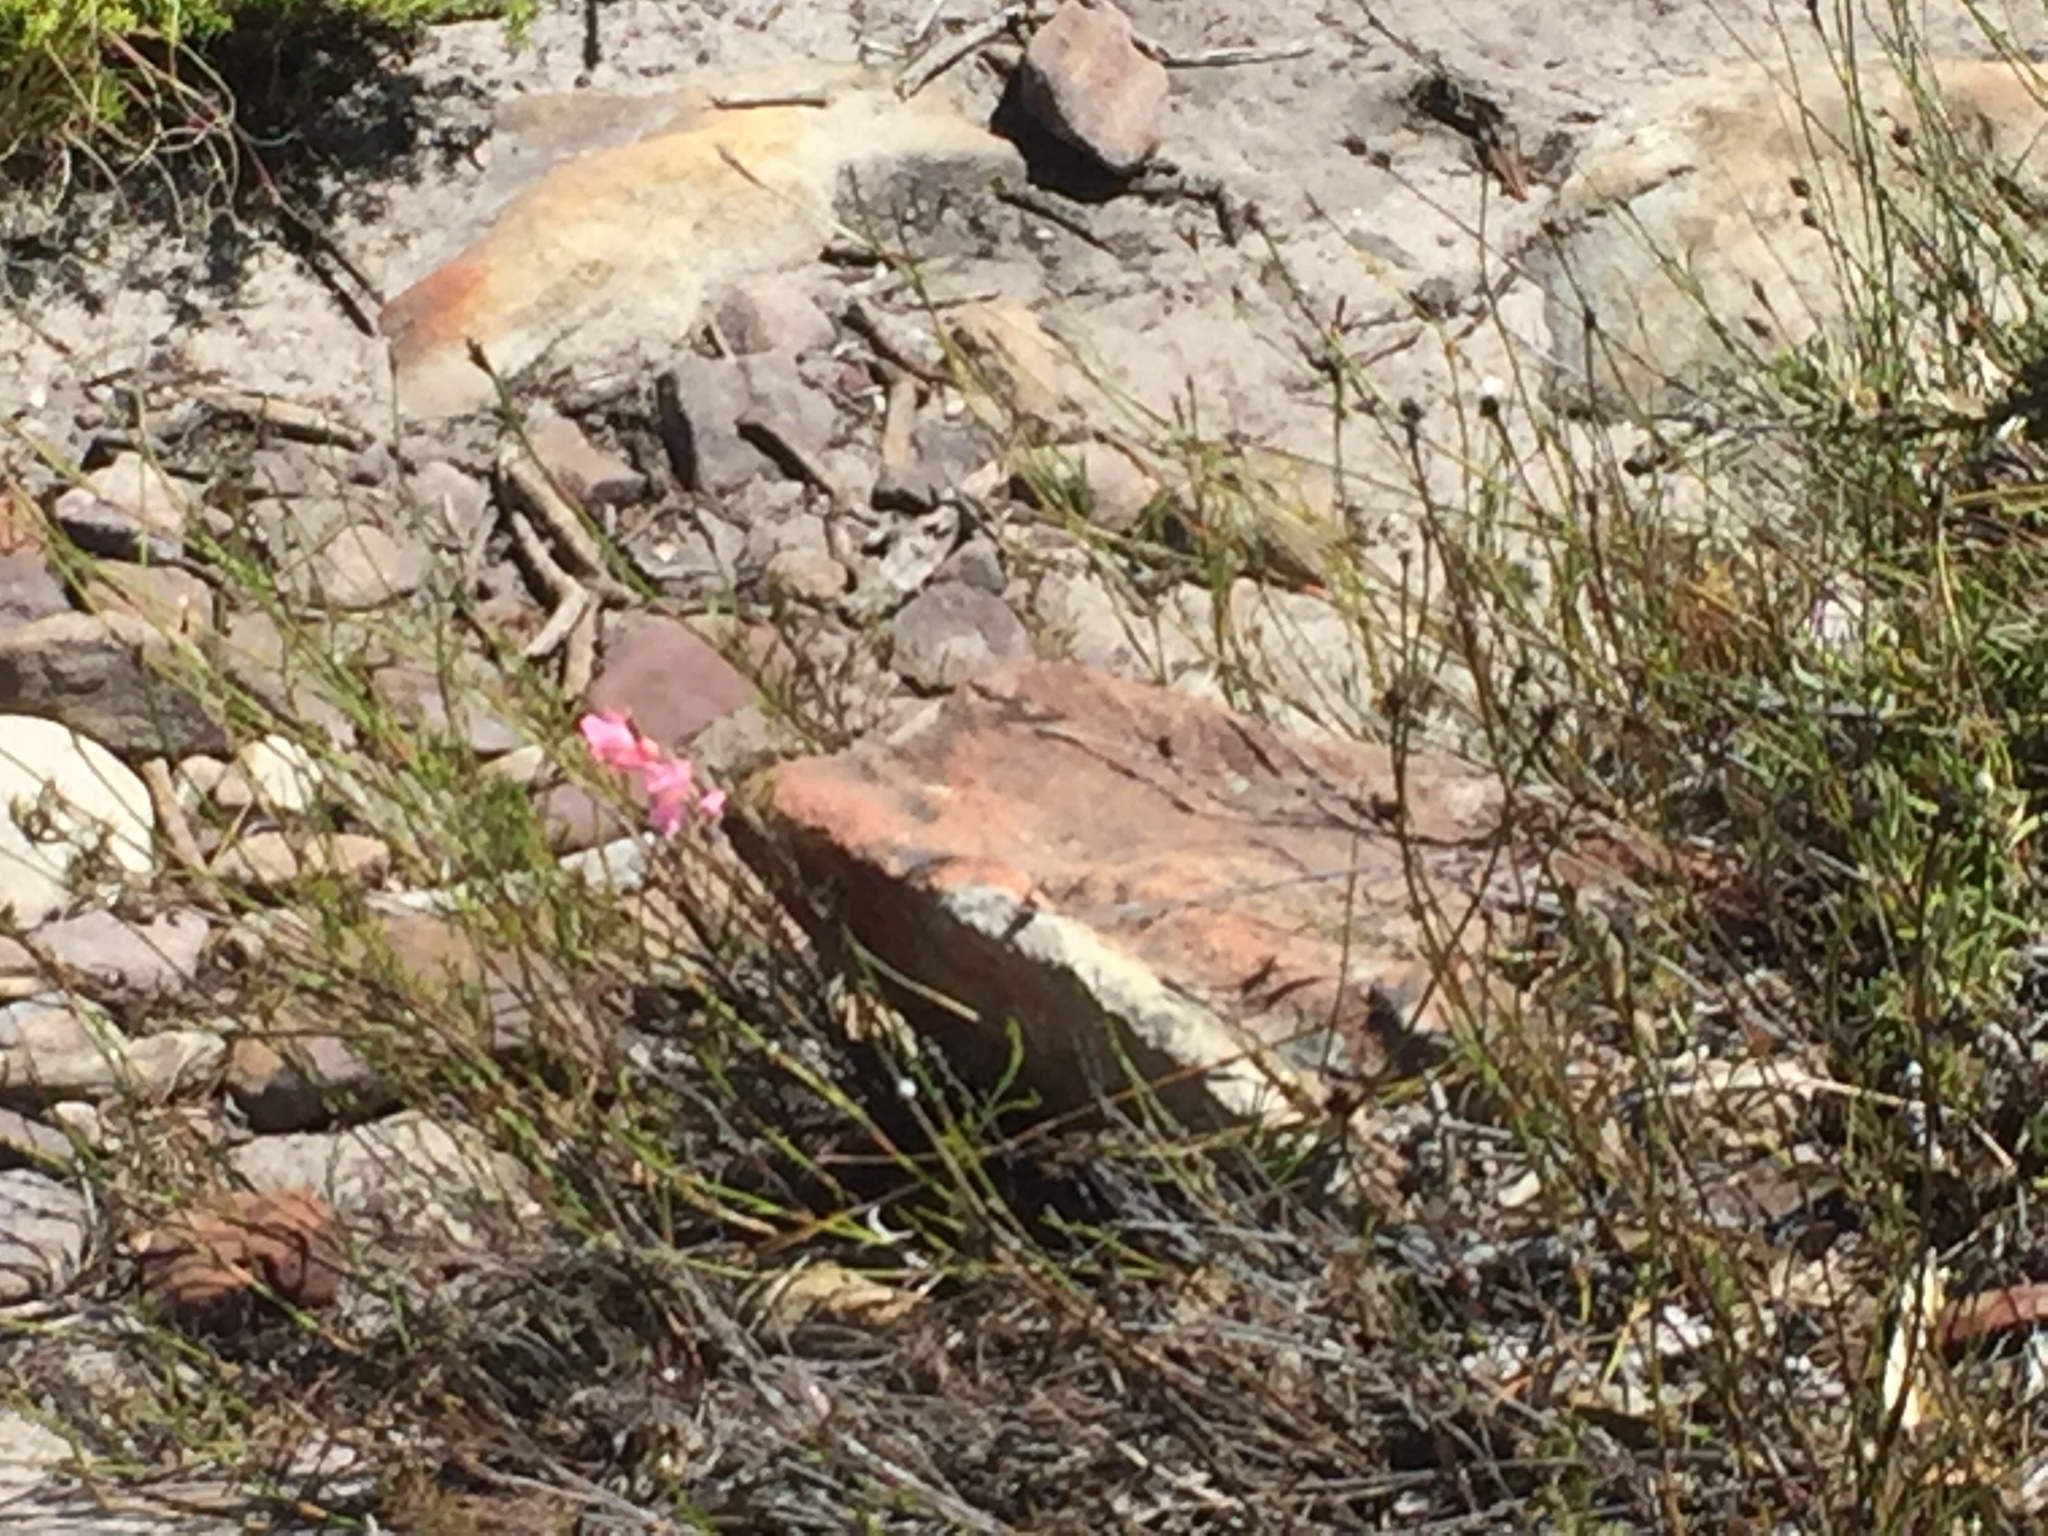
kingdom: Plantae
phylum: Tracheophyta
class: Liliopsida
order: Asparagales
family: Iridaceae
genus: Gladiolus
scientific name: Gladiolus brevifolius
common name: March pypie
